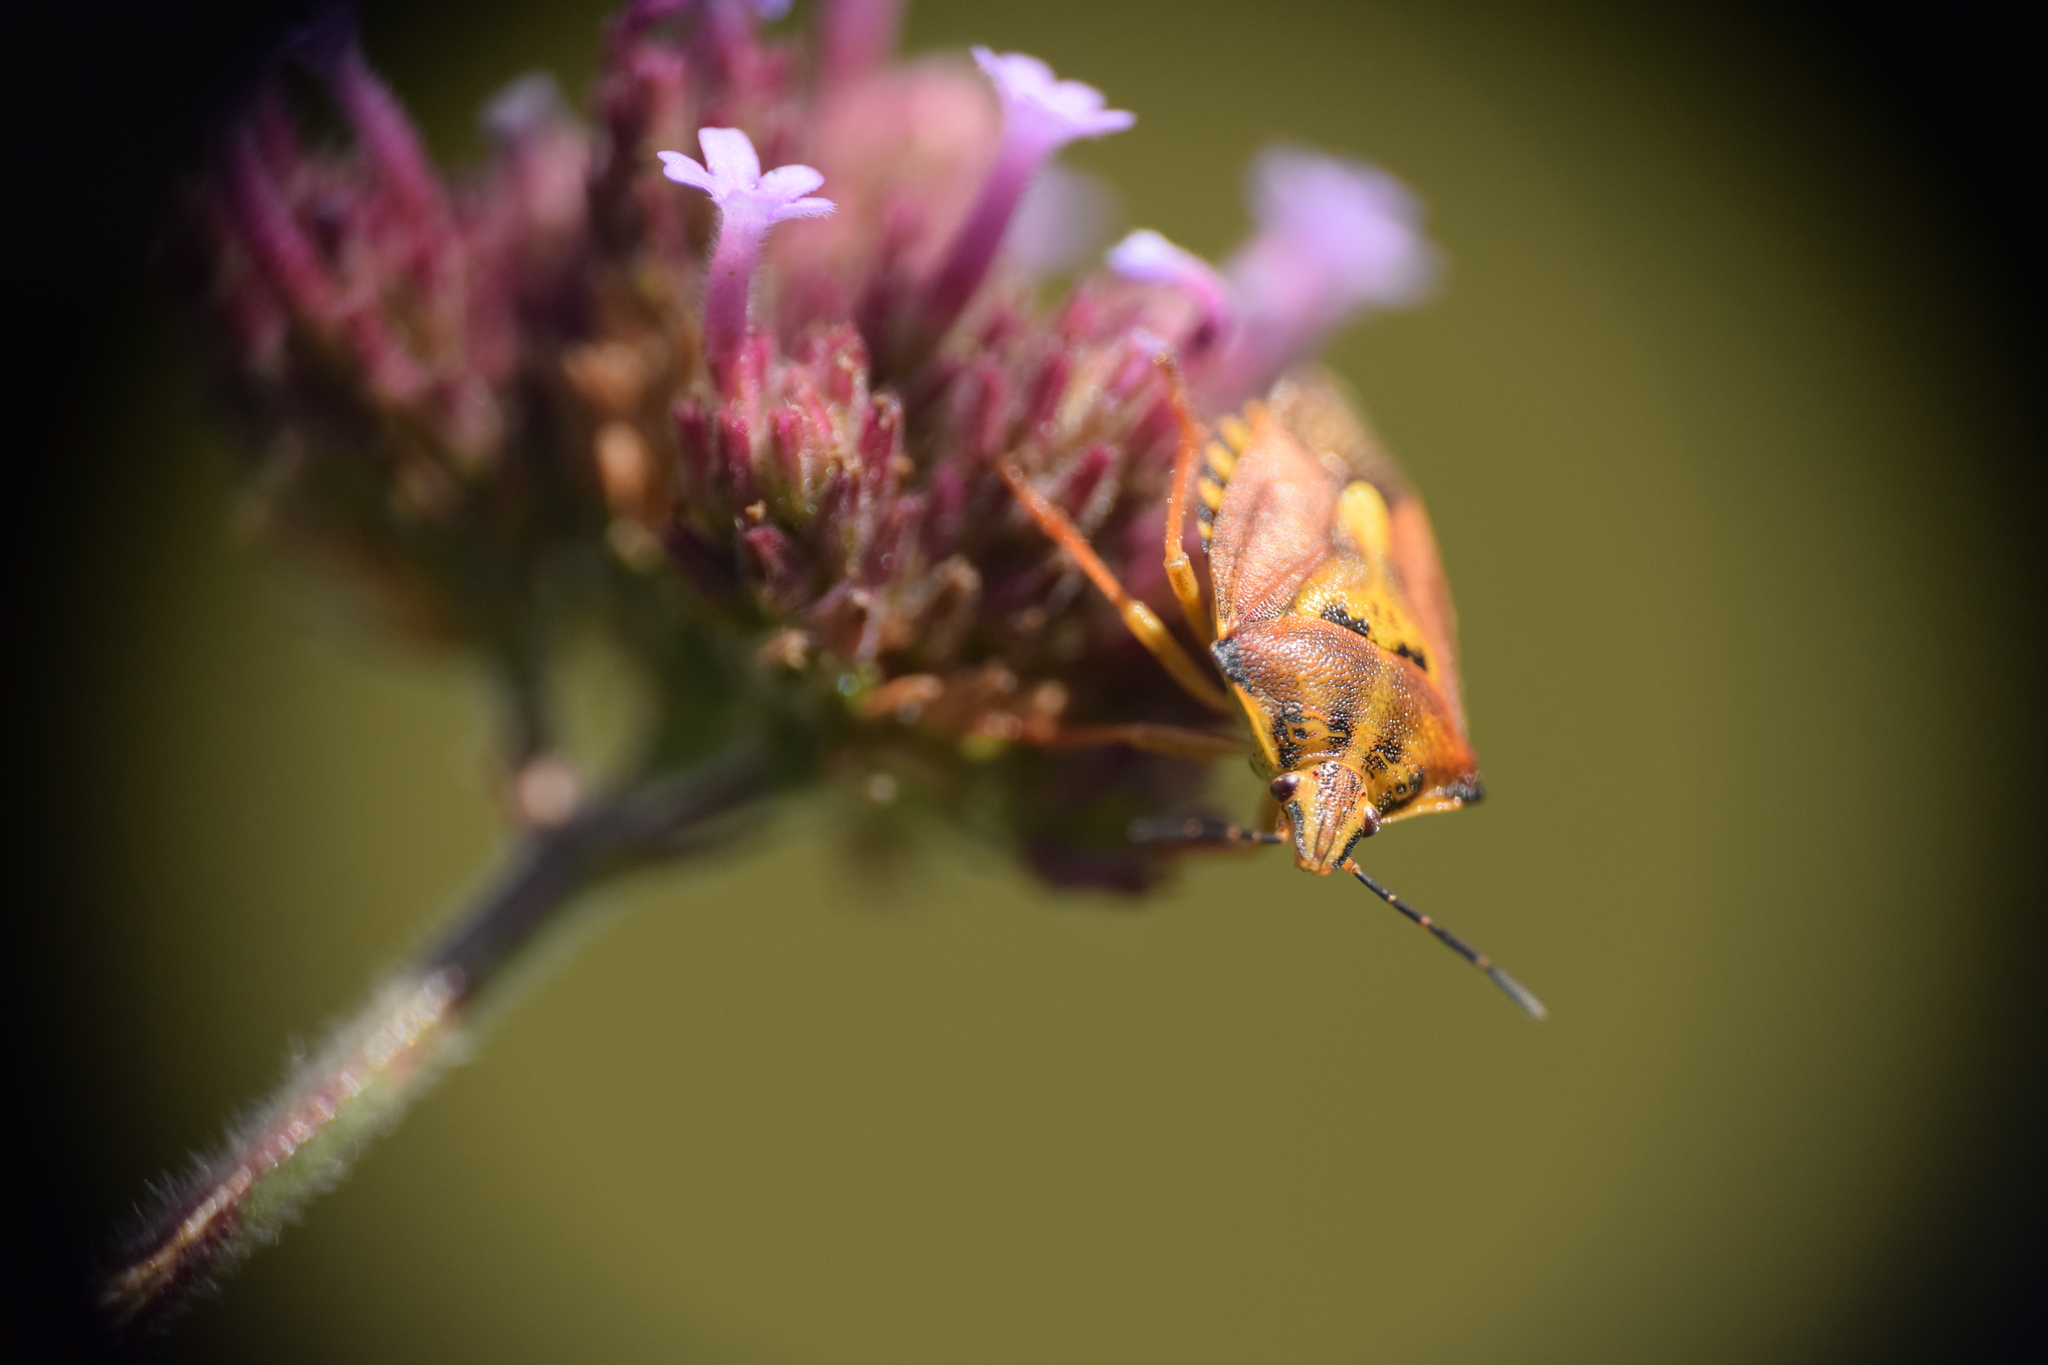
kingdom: Animalia
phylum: Arthropoda
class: Insecta
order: Hemiptera
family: Pentatomidae
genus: Carpocoris
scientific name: Carpocoris purpureipennis
